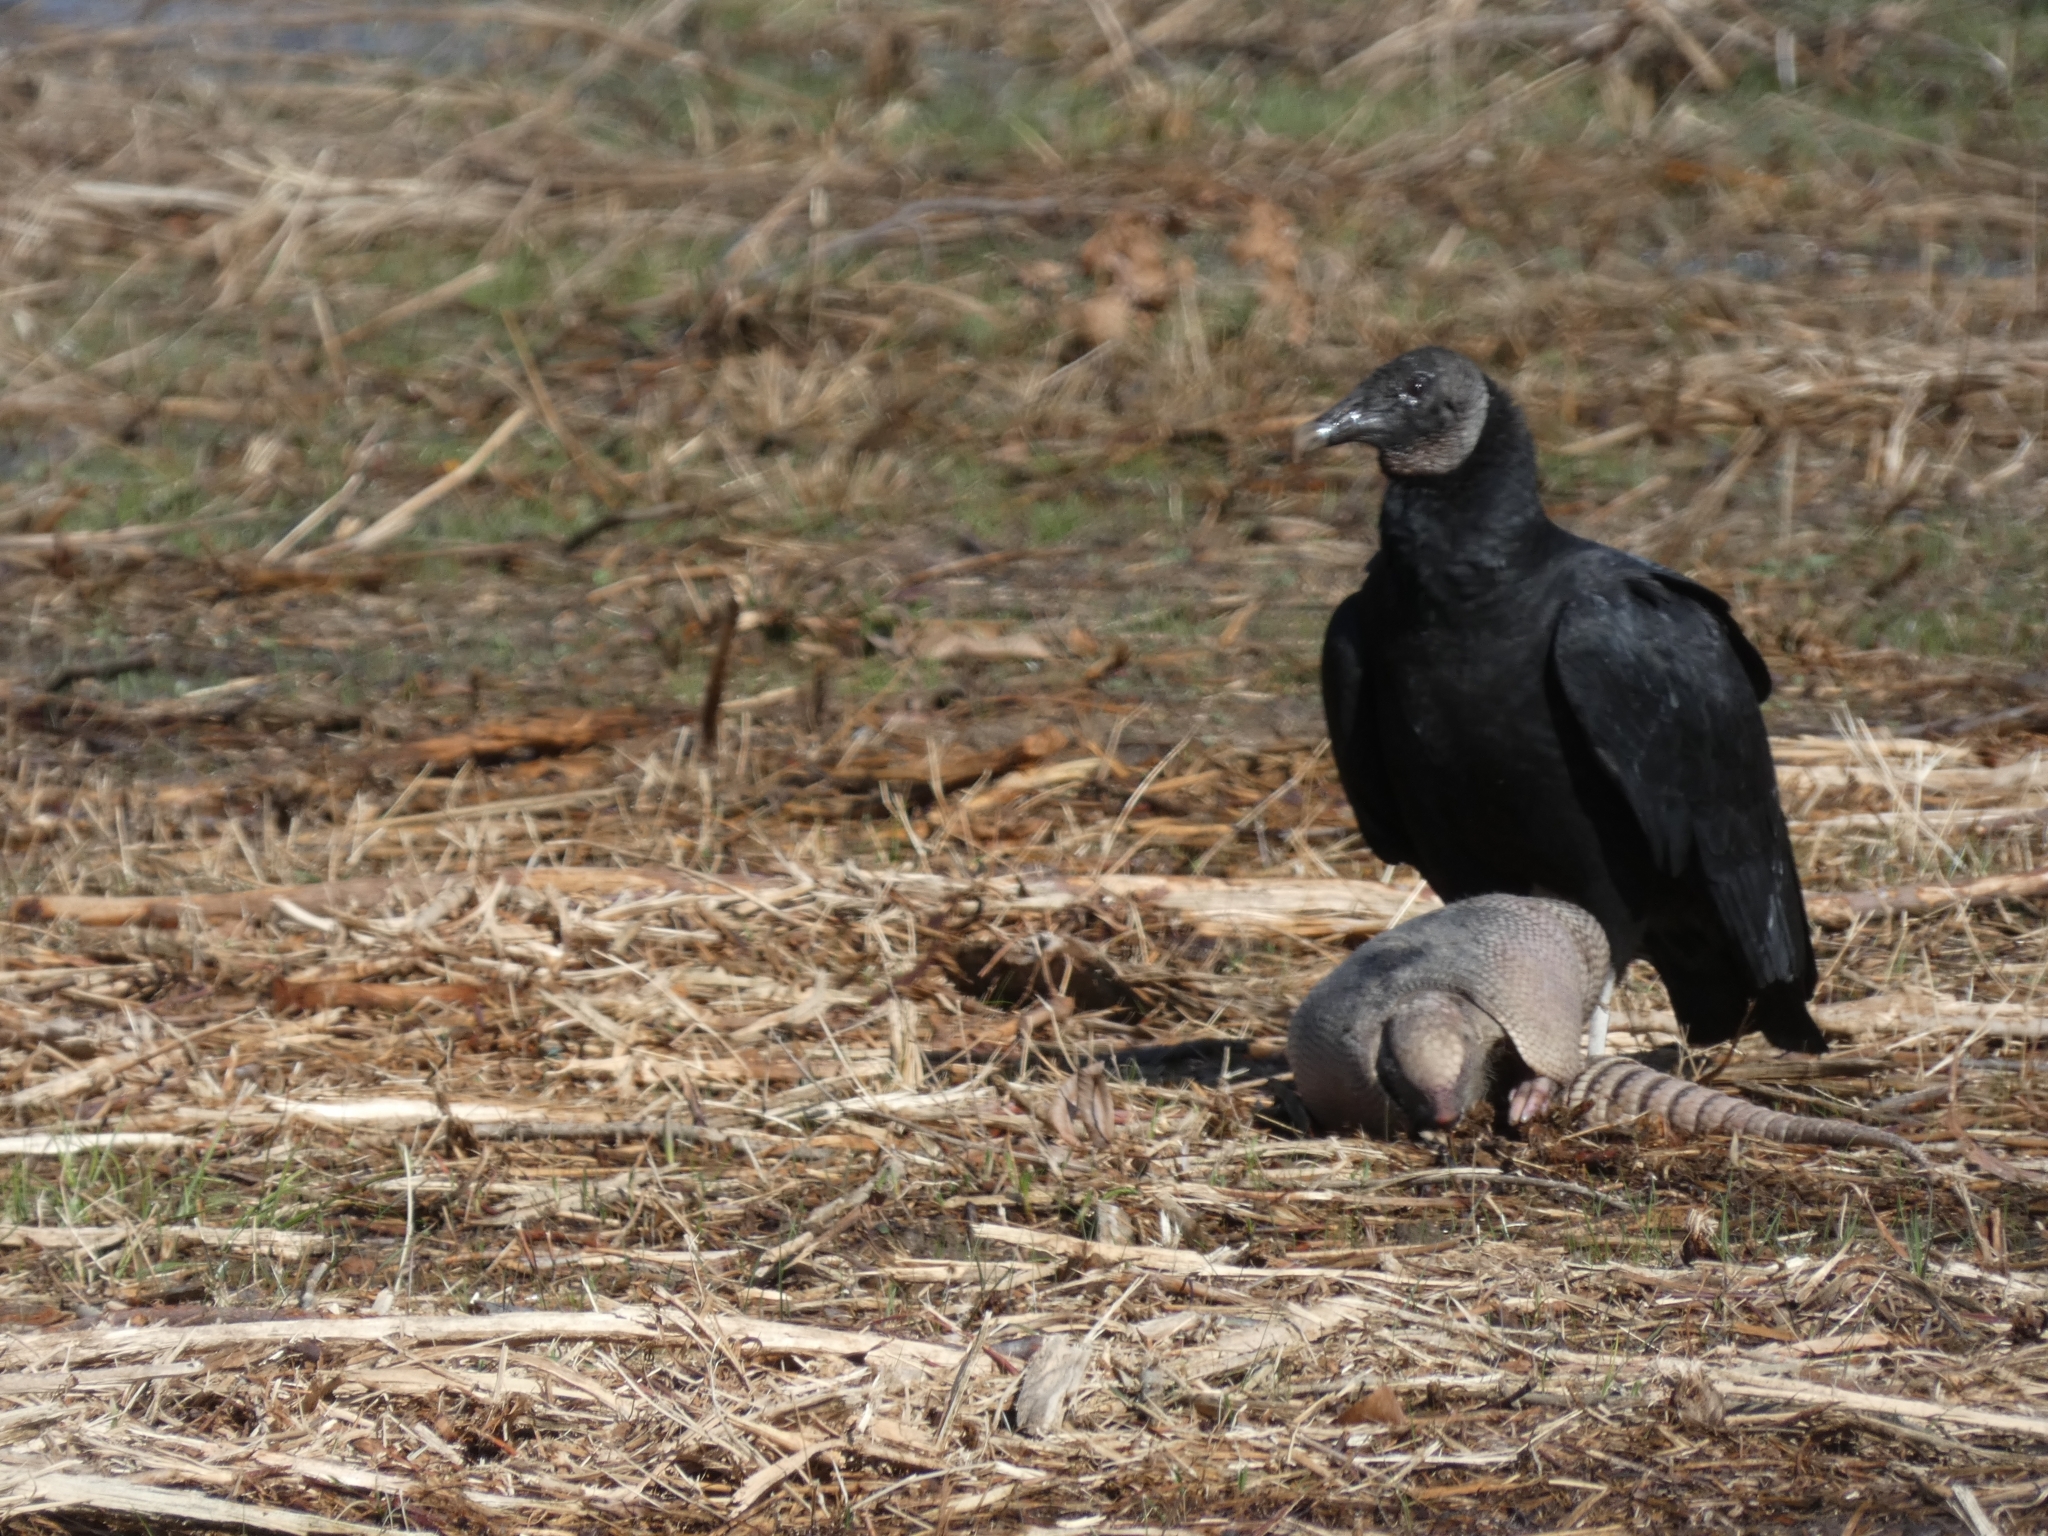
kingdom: Animalia
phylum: Chordata
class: Aves
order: Accipitriformes
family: Cathartidae
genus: Coragyps
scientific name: Coragyps atratus
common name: Black vulture
